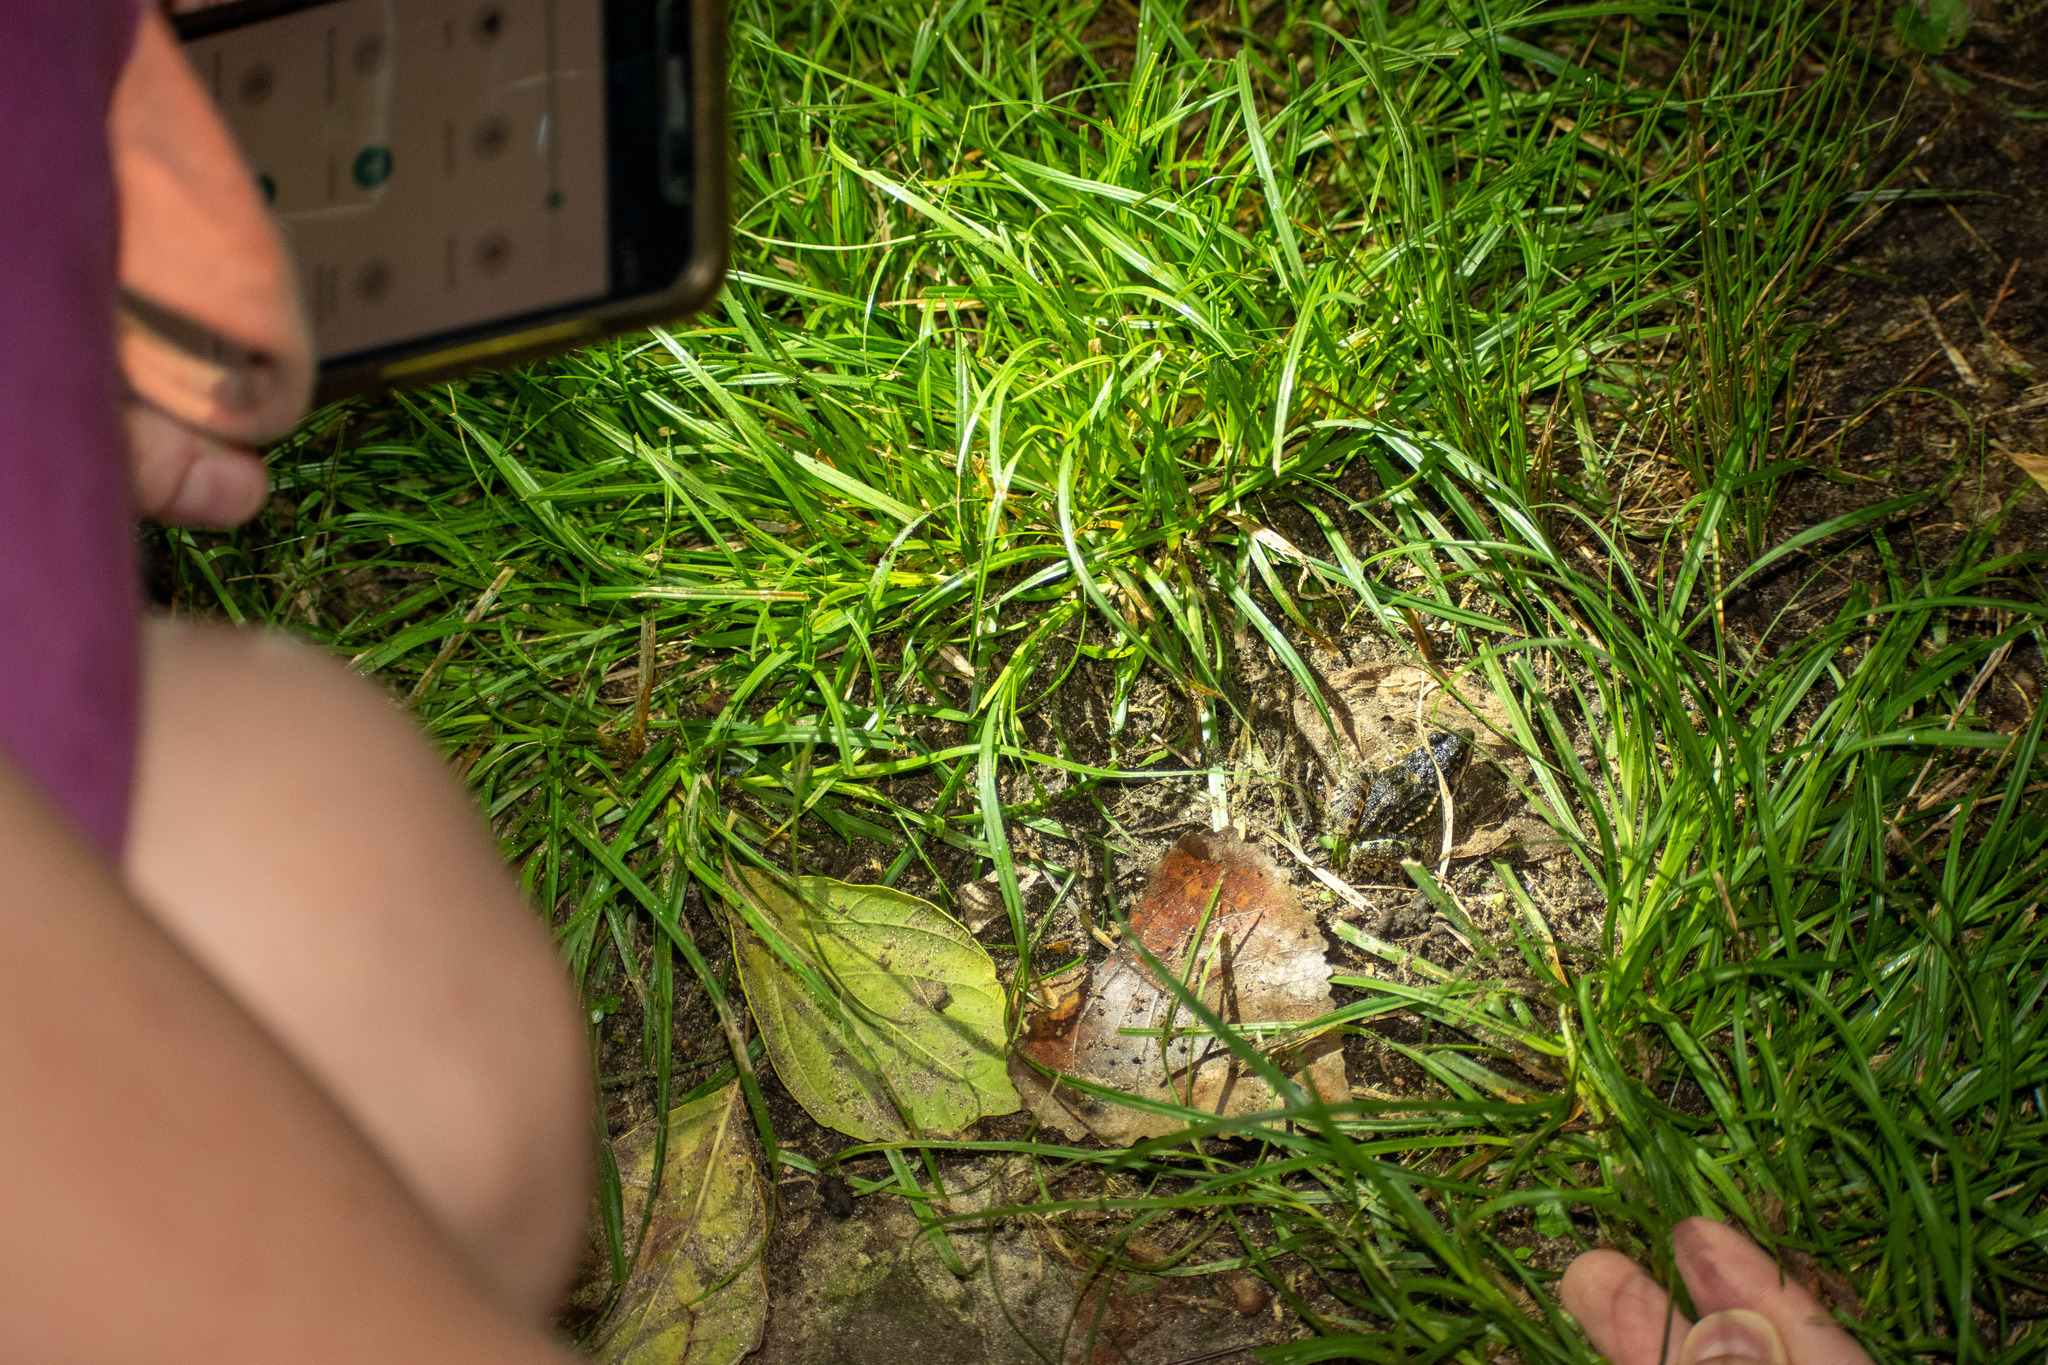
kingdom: Animalia
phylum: Chordata
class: Amphibia
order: Anura
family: Leptodactylidae
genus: Leptodactylus
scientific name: Leptodactylus latinasus
